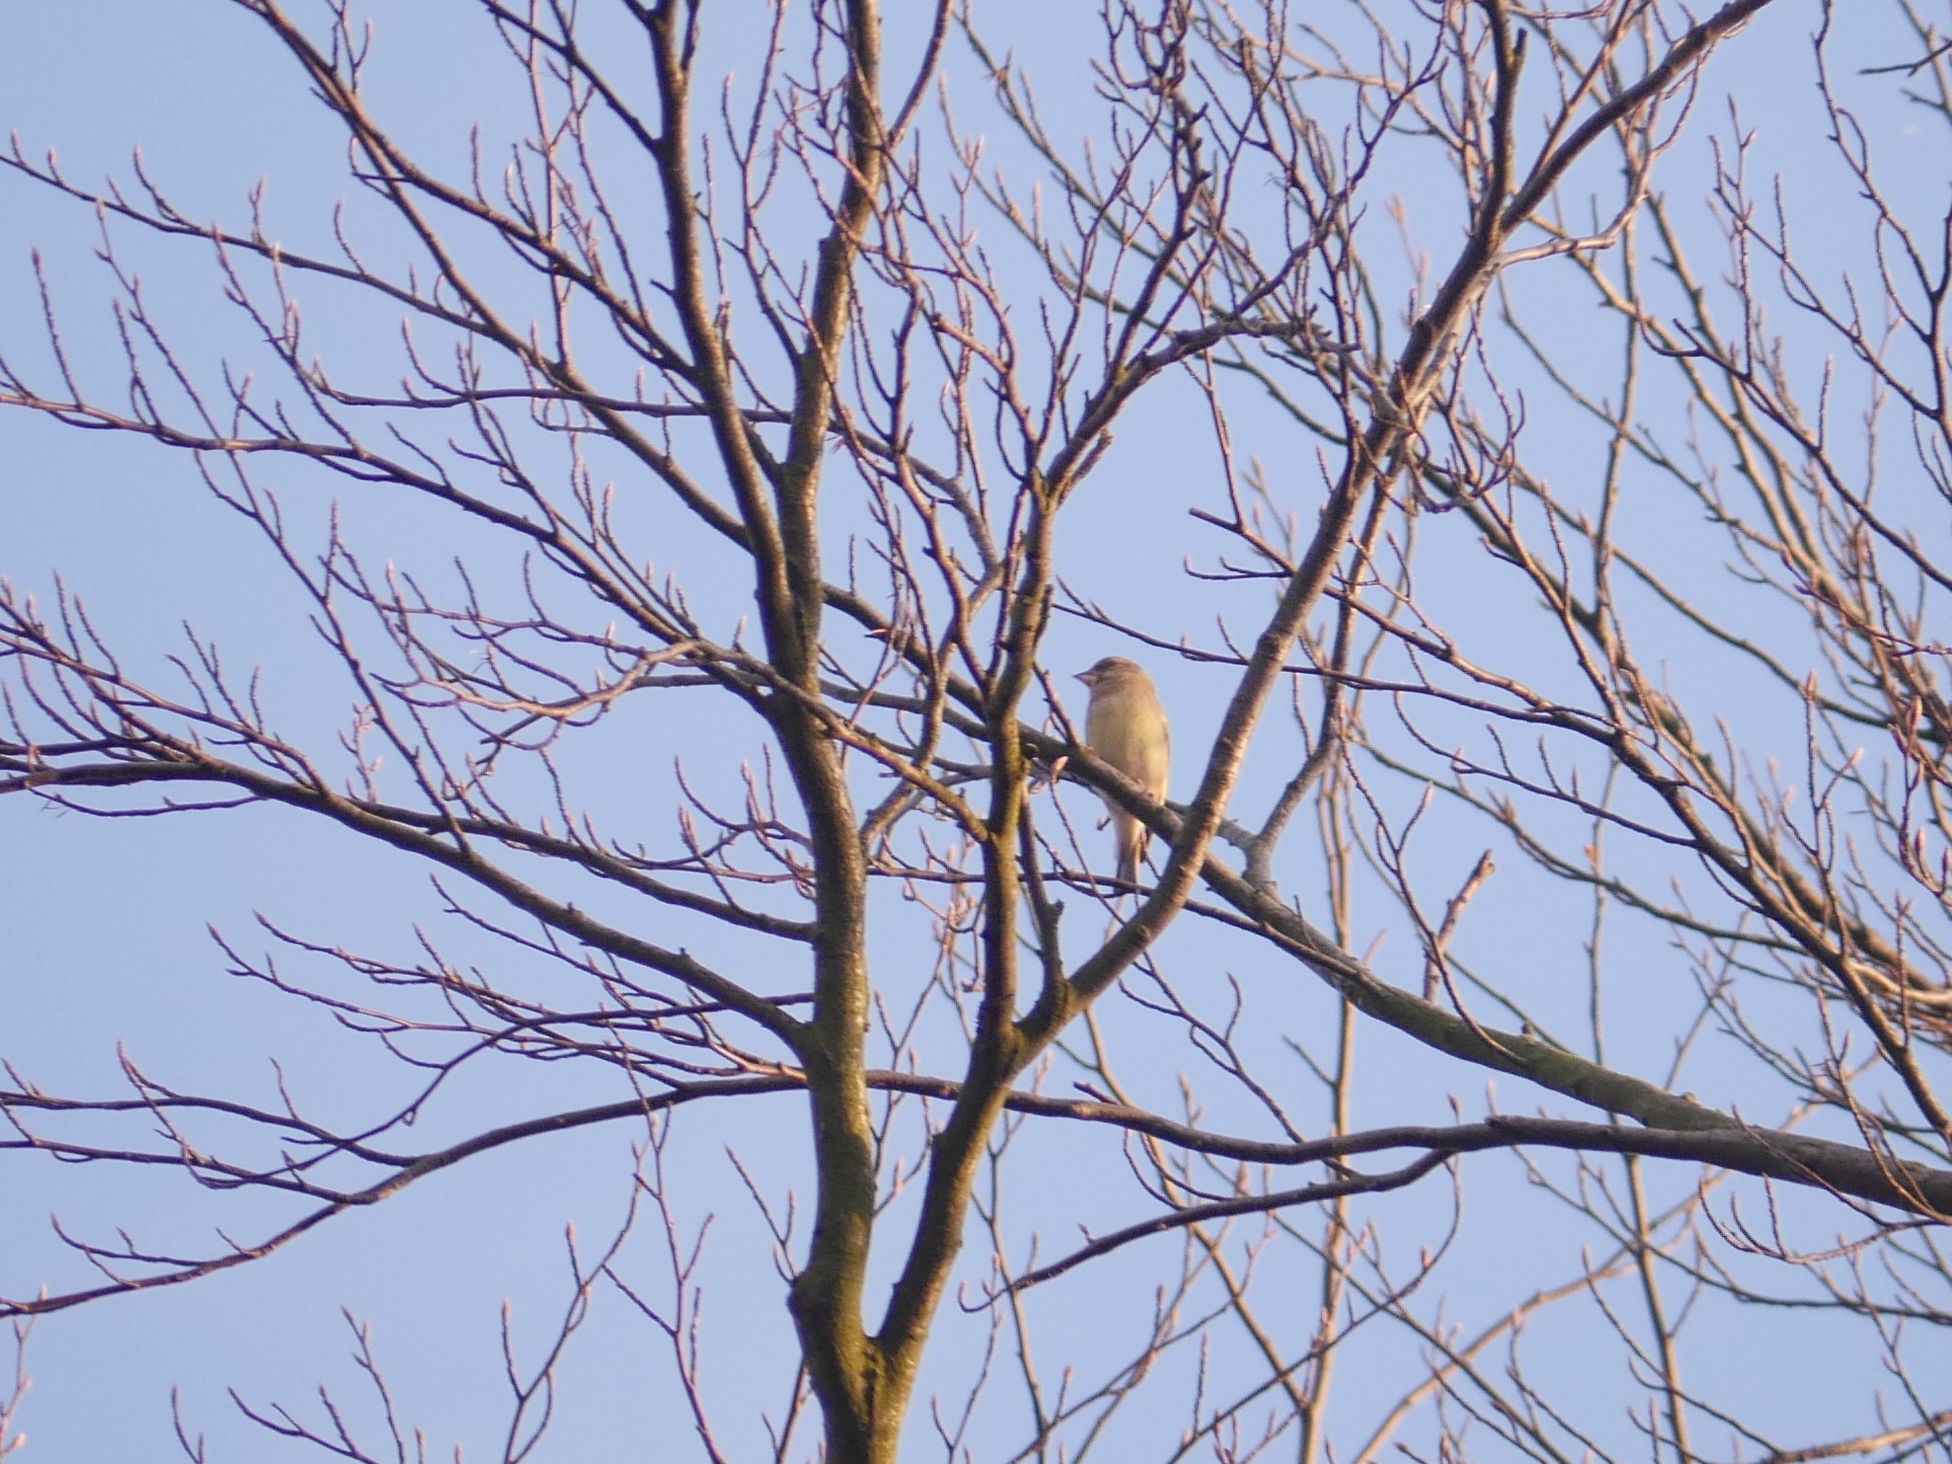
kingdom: Plantae
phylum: Tracheophyta
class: Liliopsida
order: Poales
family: Poaceae
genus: Chloris
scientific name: Chloris chloris
